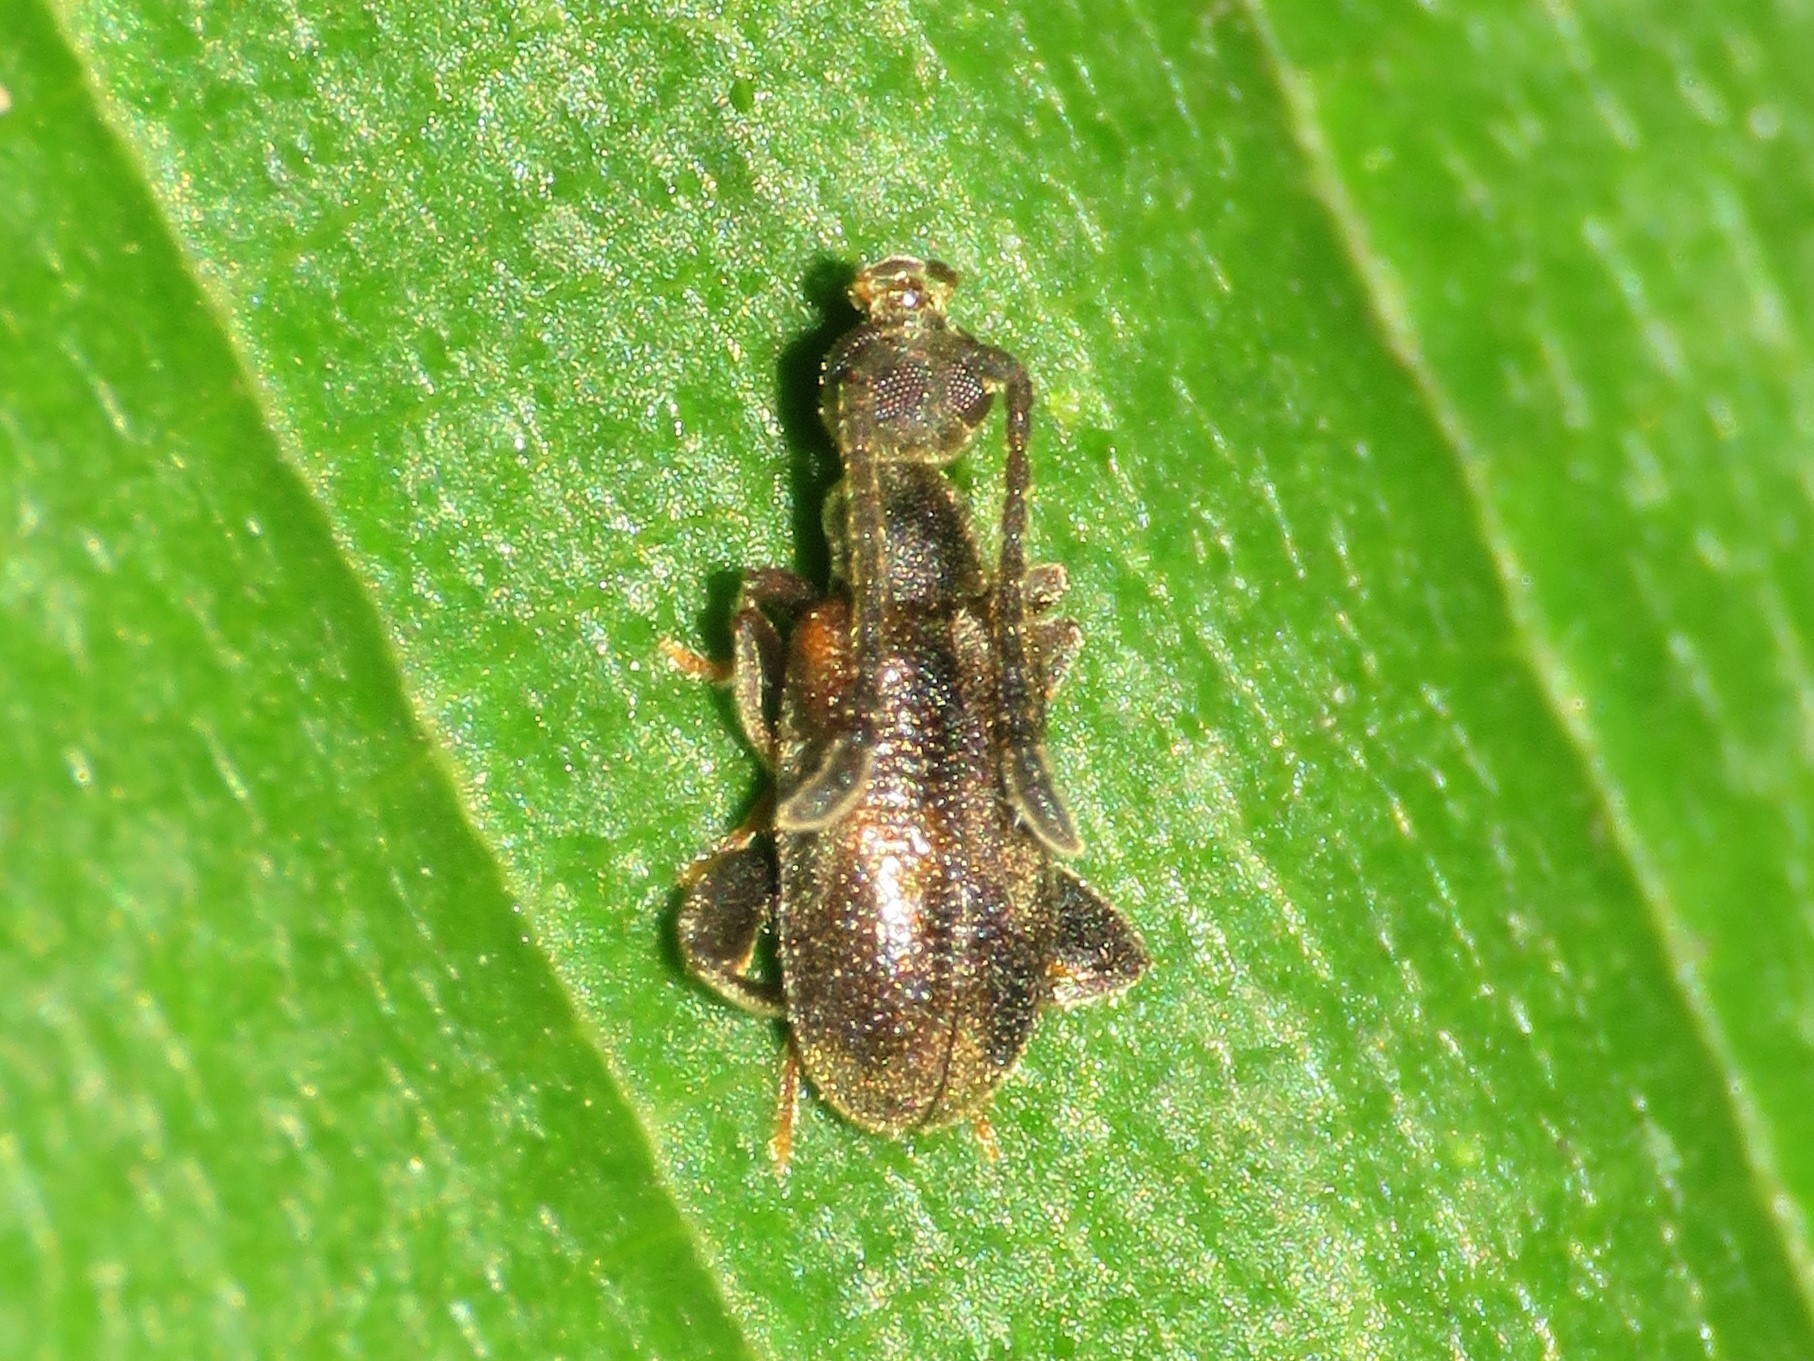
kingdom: Animalia
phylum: Arthropoda
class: Insecta
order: Coleoptera
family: Aderidae
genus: Elonus
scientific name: Elonus basalis
